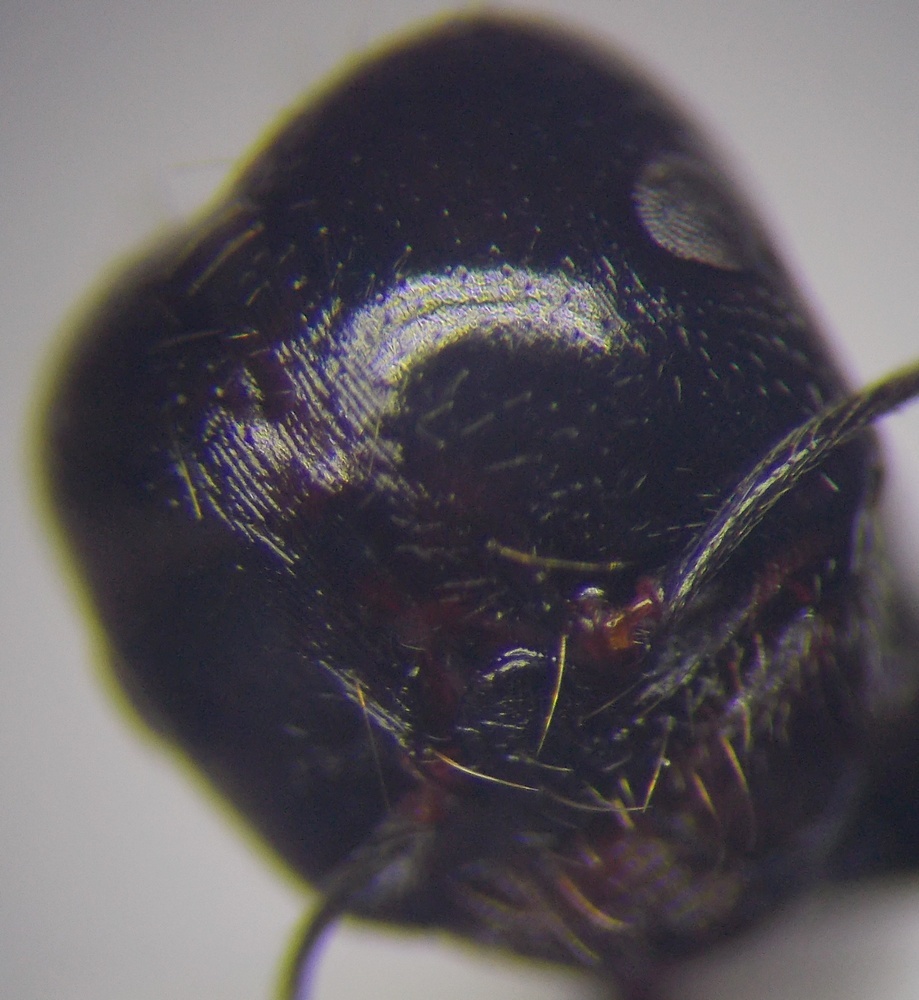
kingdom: Animalia
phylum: Arthropoda
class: Insecta
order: Hymenoptera
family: Formicidae
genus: Messor
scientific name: Messor denticulatus
